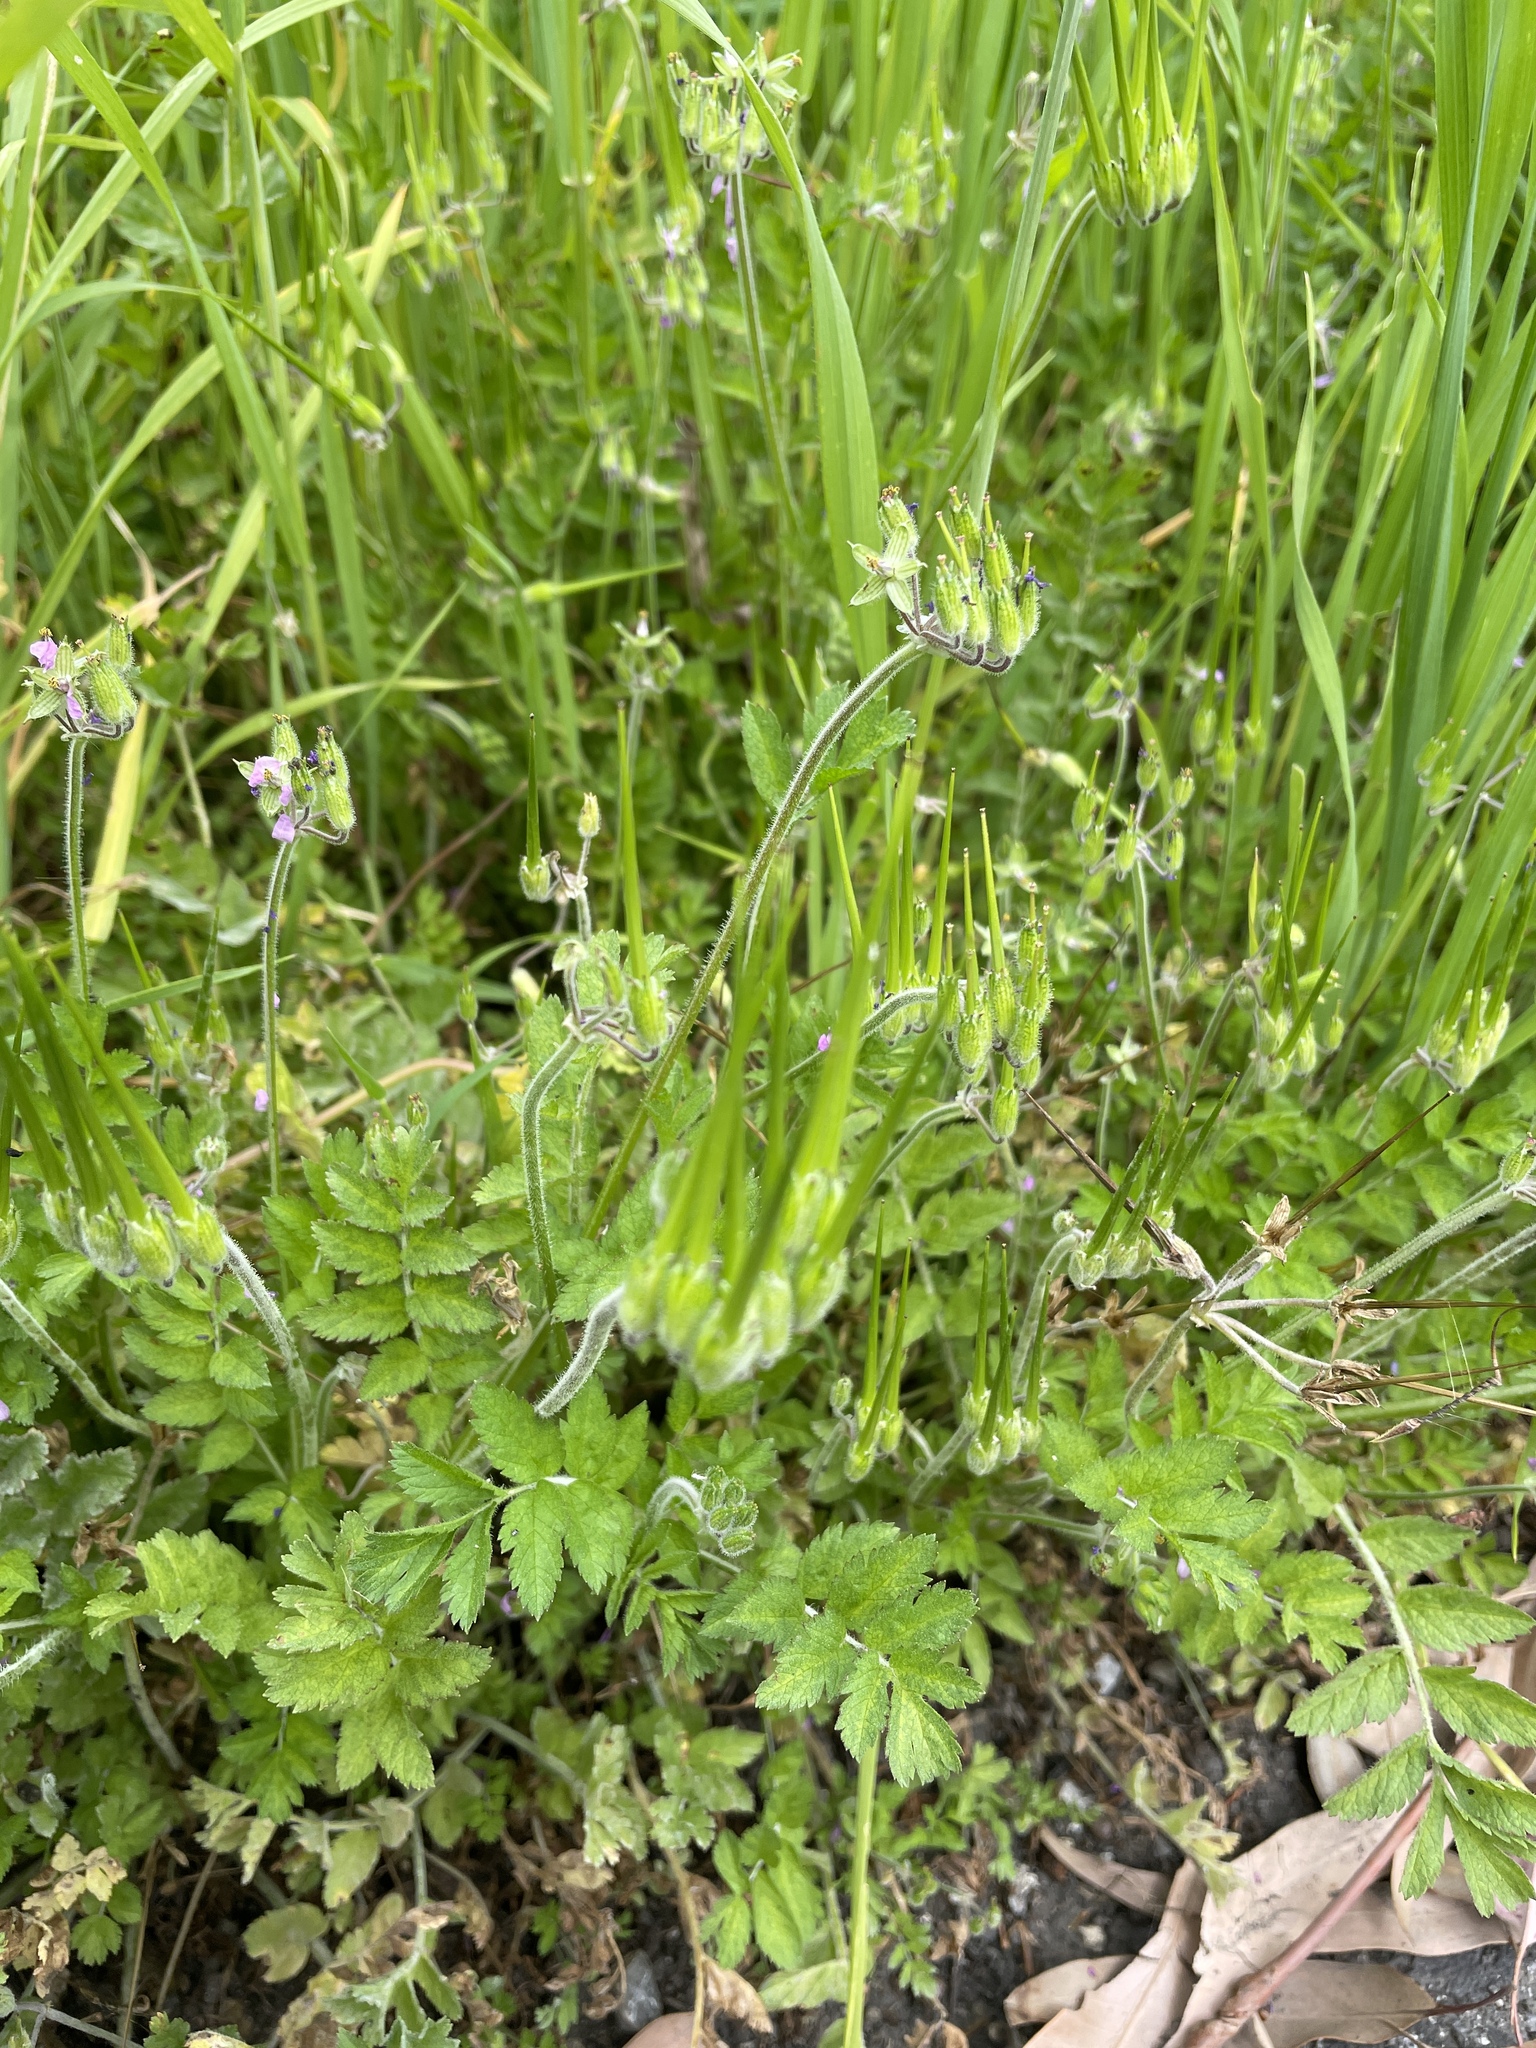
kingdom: Plantae
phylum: Tracheophyta
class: Magnoliopsida
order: Geraniales
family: Geraniaceae
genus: Erodium
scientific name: Erodium moschatum
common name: Musk stork's-bill
